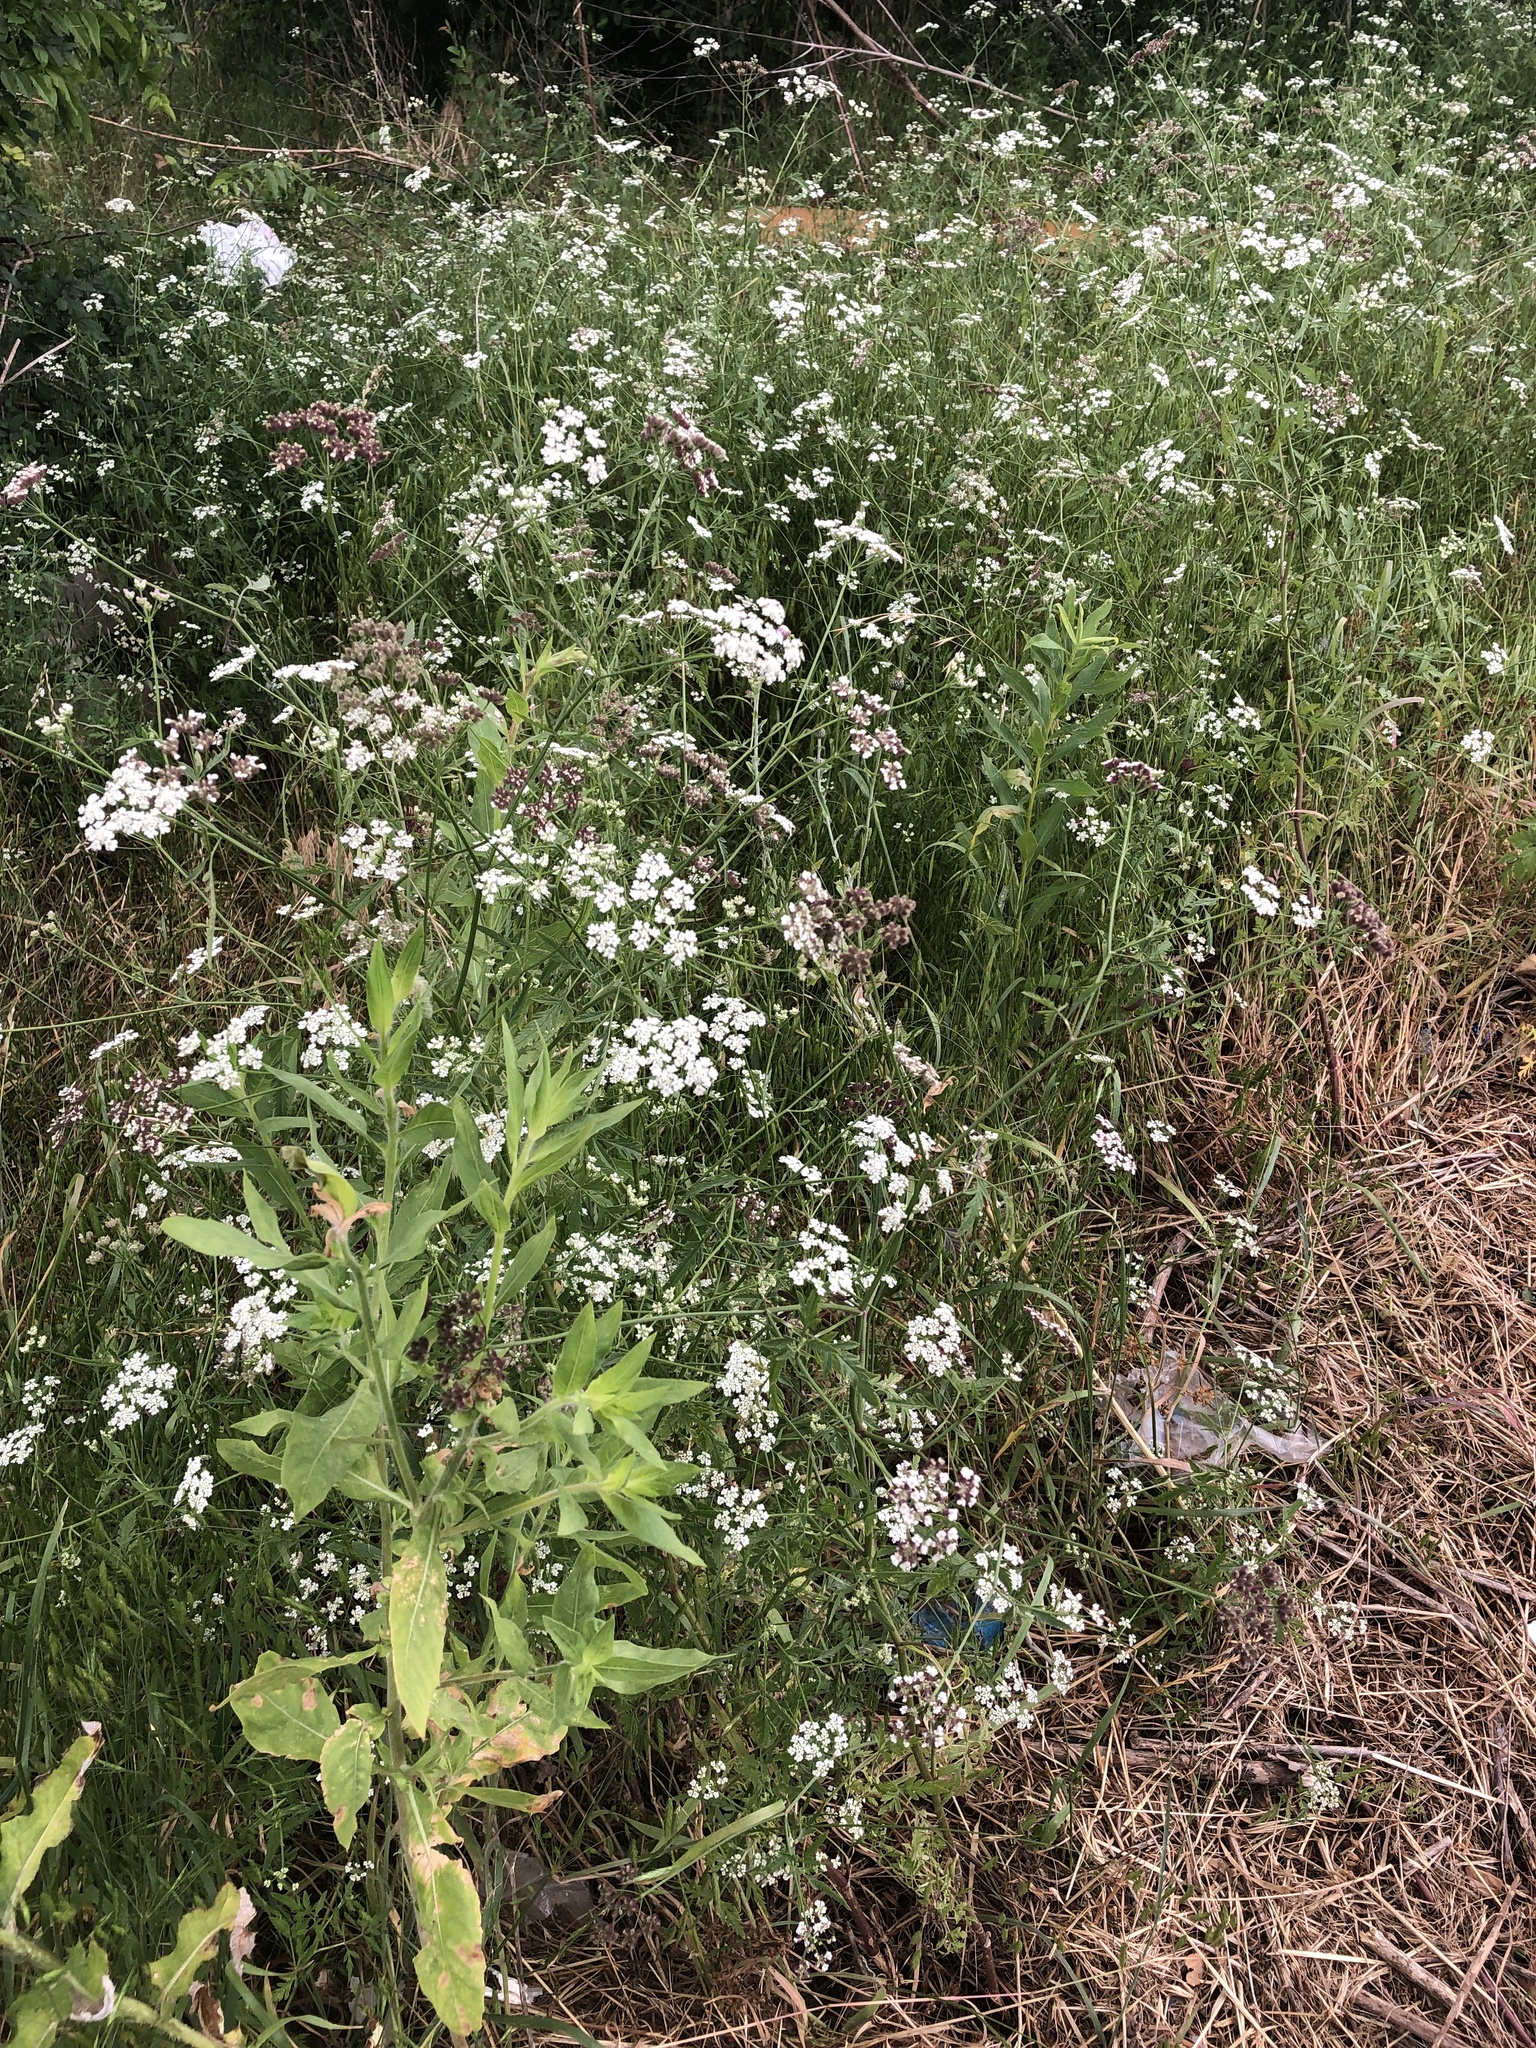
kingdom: Plantae
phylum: Tracheophyta
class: Magnoliopsida
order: Apiales
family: Apiaceae
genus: Torilis
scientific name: Torilis arvensis
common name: Spreading hedge-parsley
